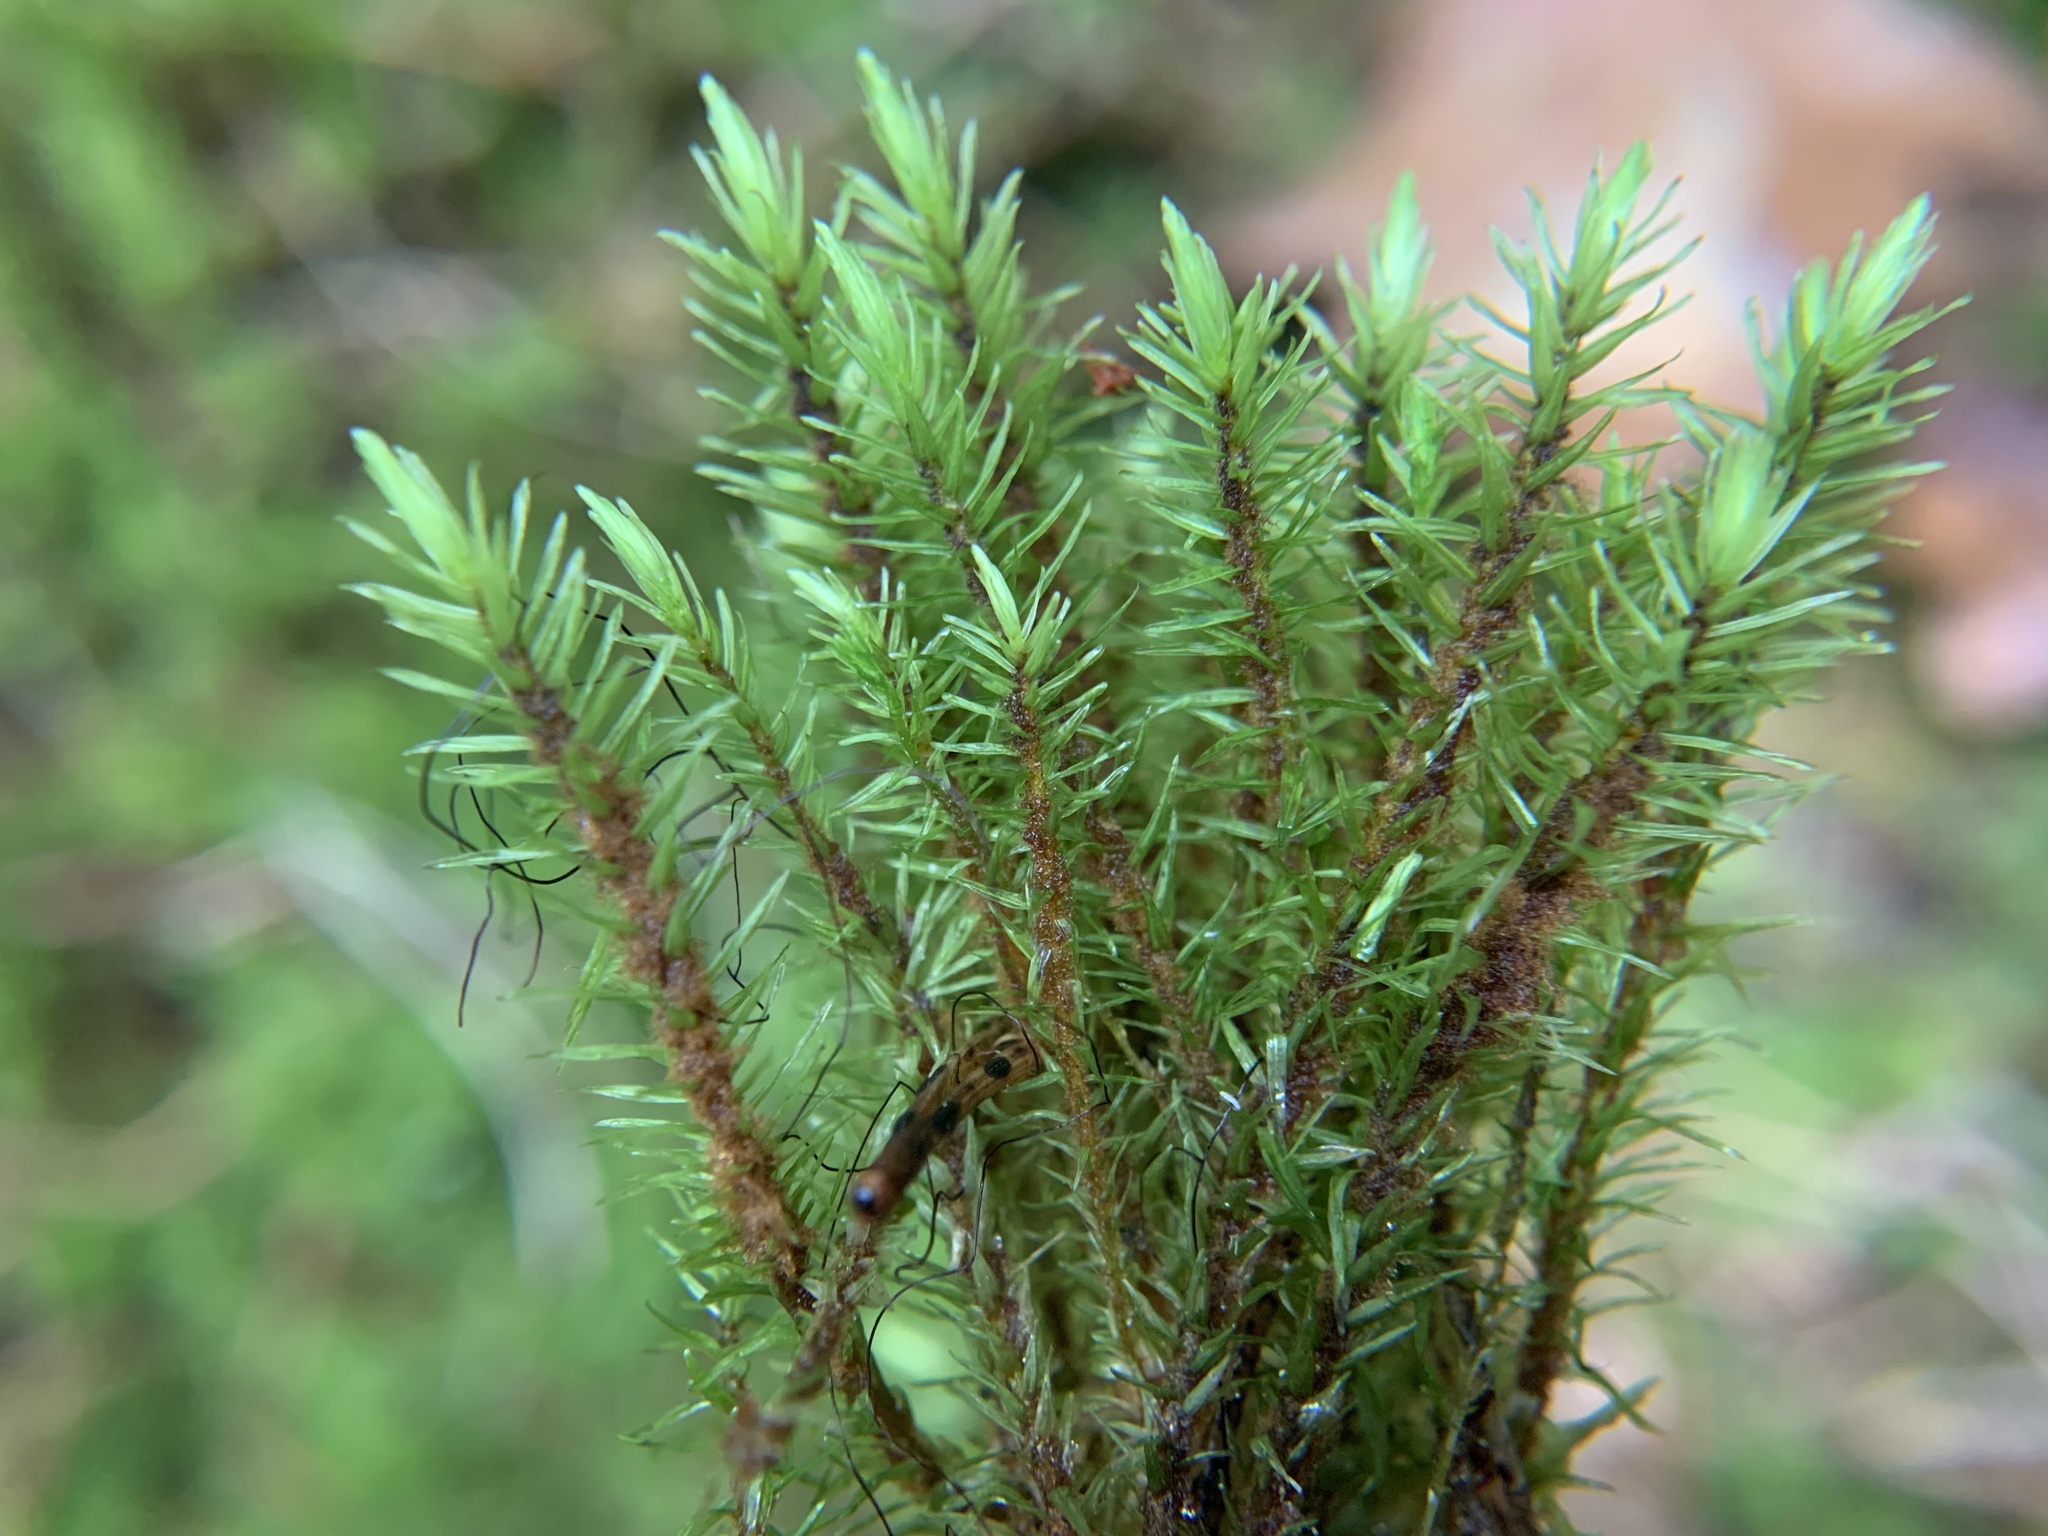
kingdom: Plantae
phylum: Bryophyta
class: Bryopsida
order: Aulacomniales
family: Aulacomniaceae
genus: Aulacomnium
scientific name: Aulacomnium palustre
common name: Bog groove-moss
